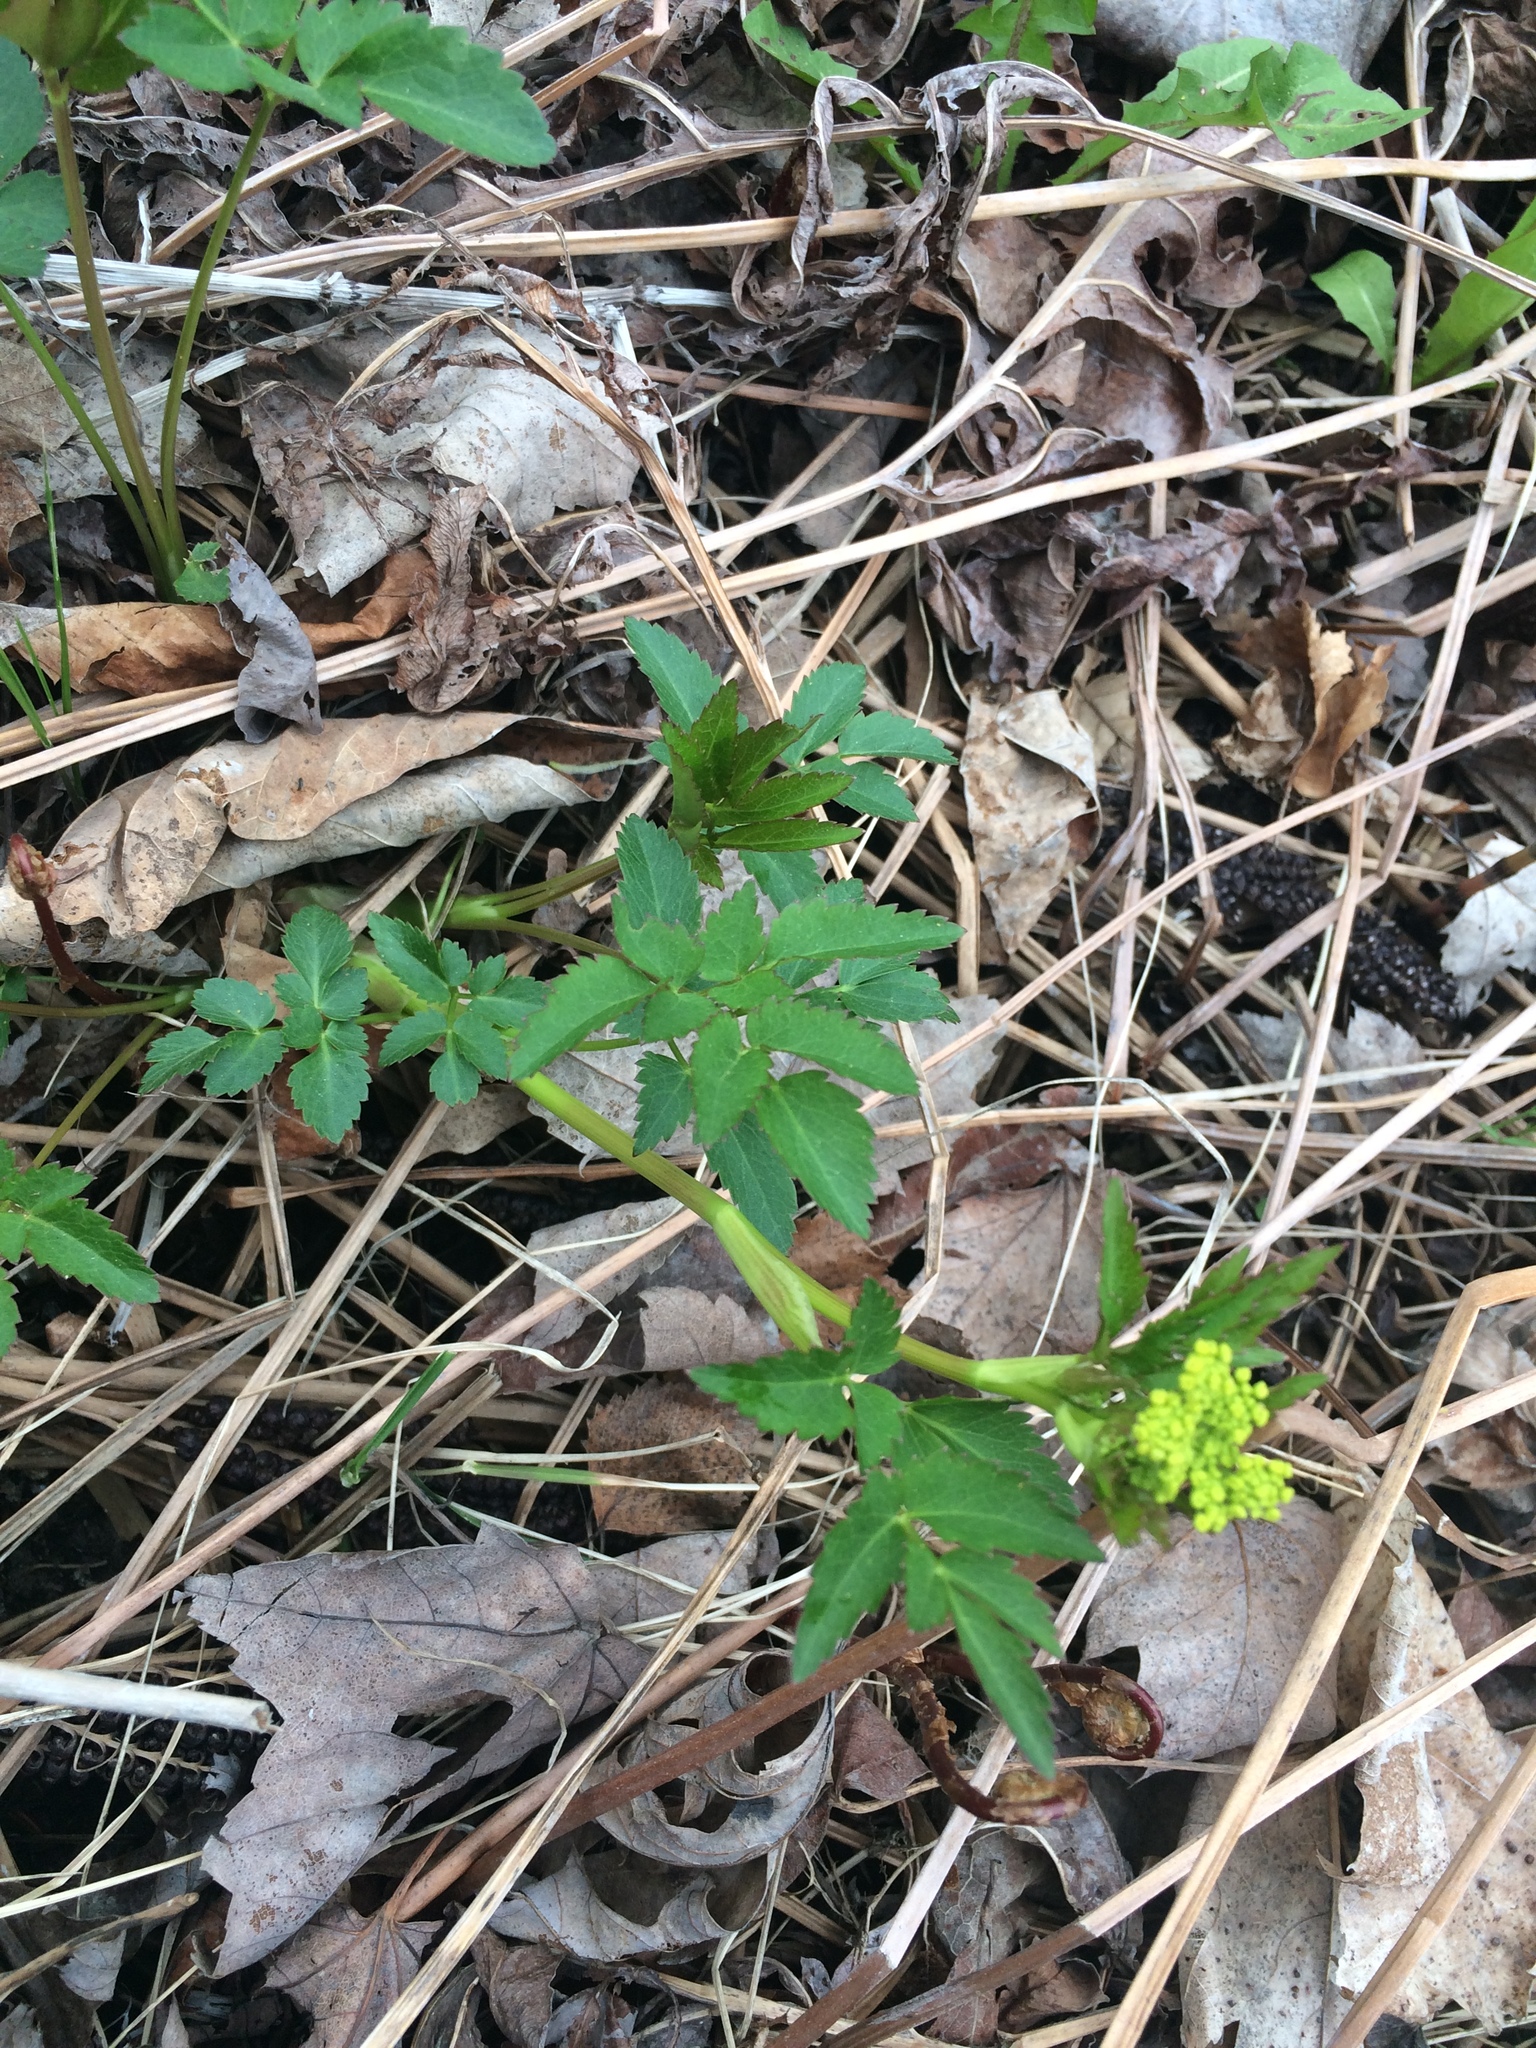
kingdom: Plantae
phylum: Tracheophyta
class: Magnoliopsida
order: Apiales
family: Apiaceae
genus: Zizia
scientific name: Zizia aurea
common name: Golden alexanders
